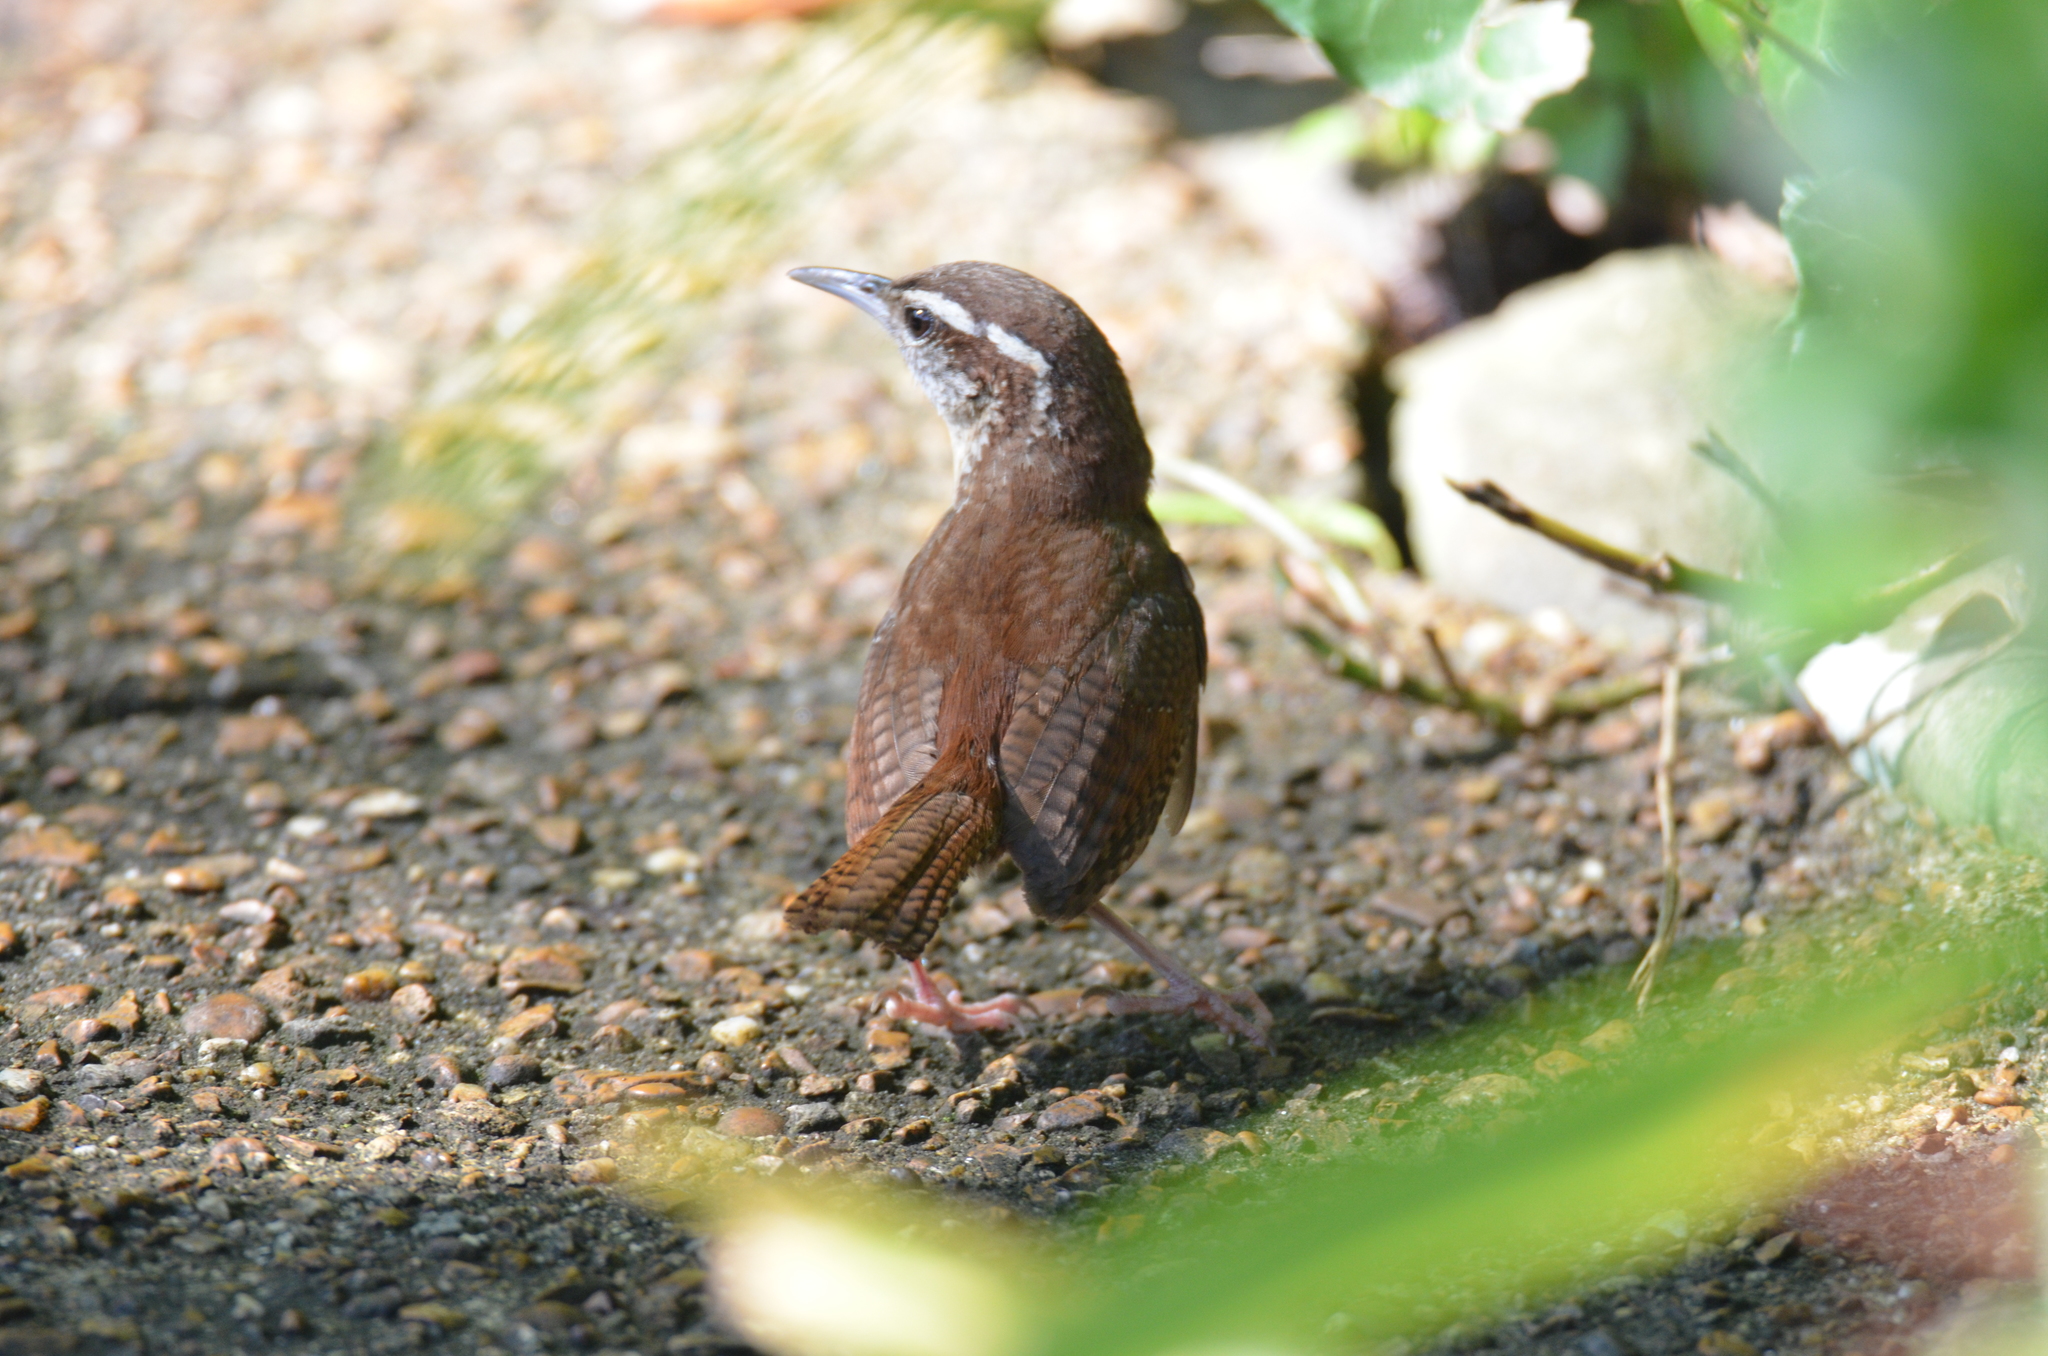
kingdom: Animalia
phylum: Chordata
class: Aves
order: Passeriformes
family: Troglodytidae
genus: Thryothorus
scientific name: Thryothorus ludovicianus
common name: Carolina wren
